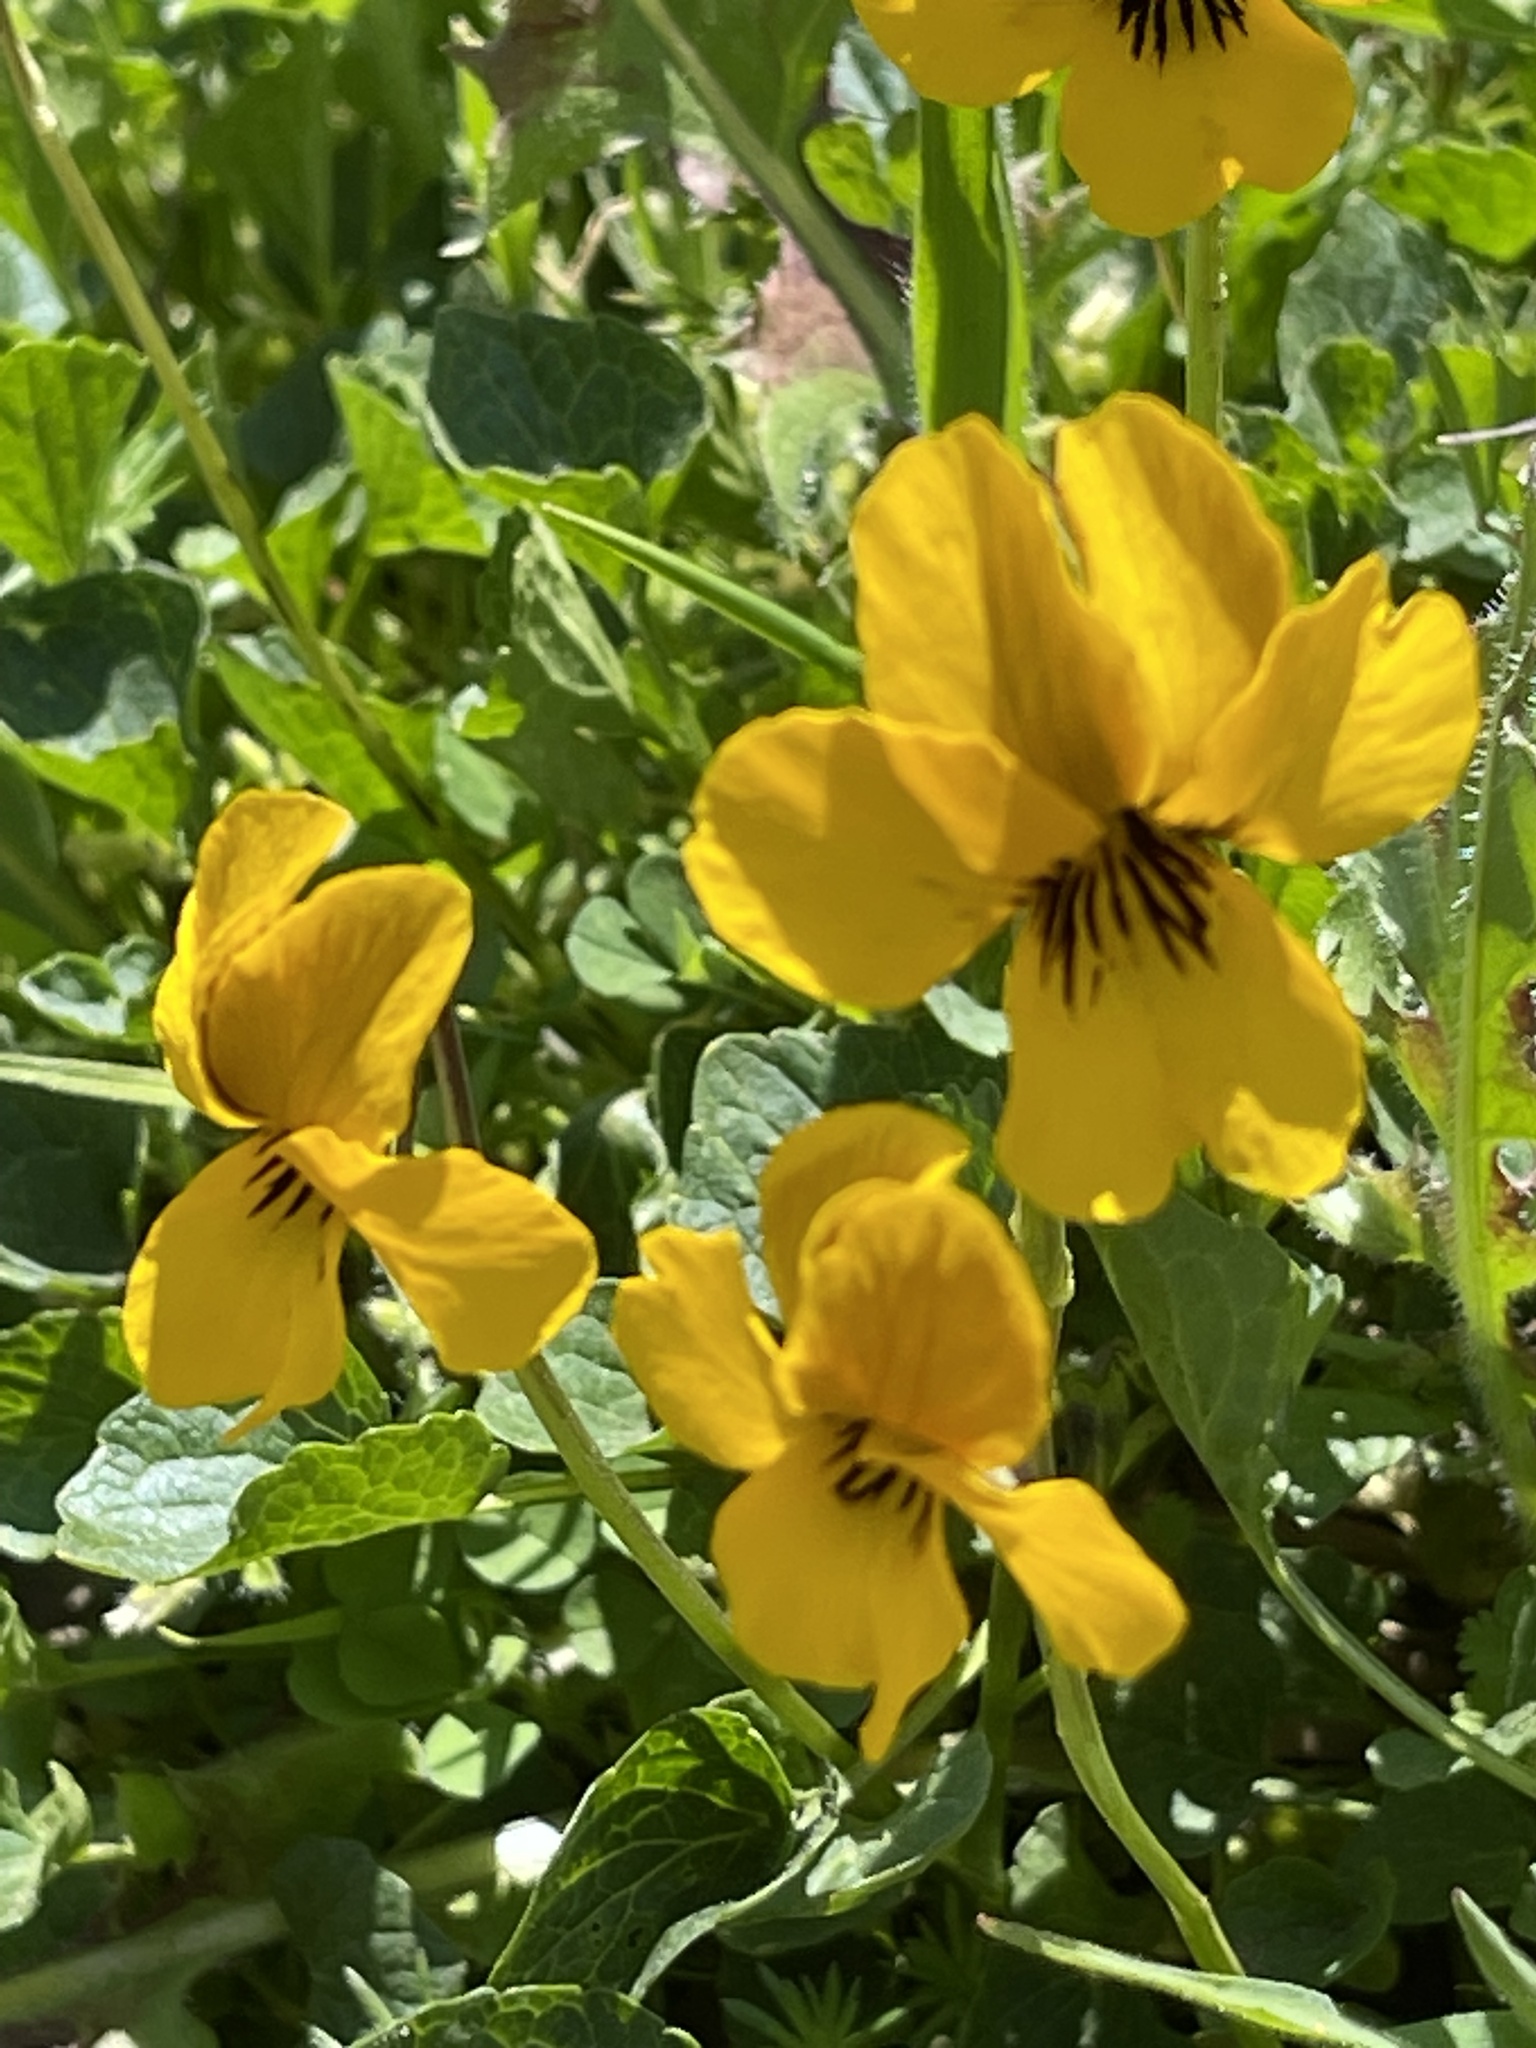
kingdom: Plantae
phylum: Tracheophyta
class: Magnoliopsida
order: Malpighiales
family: Violaceae
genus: Viola
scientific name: Viola pedunculata
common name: California golden violet
